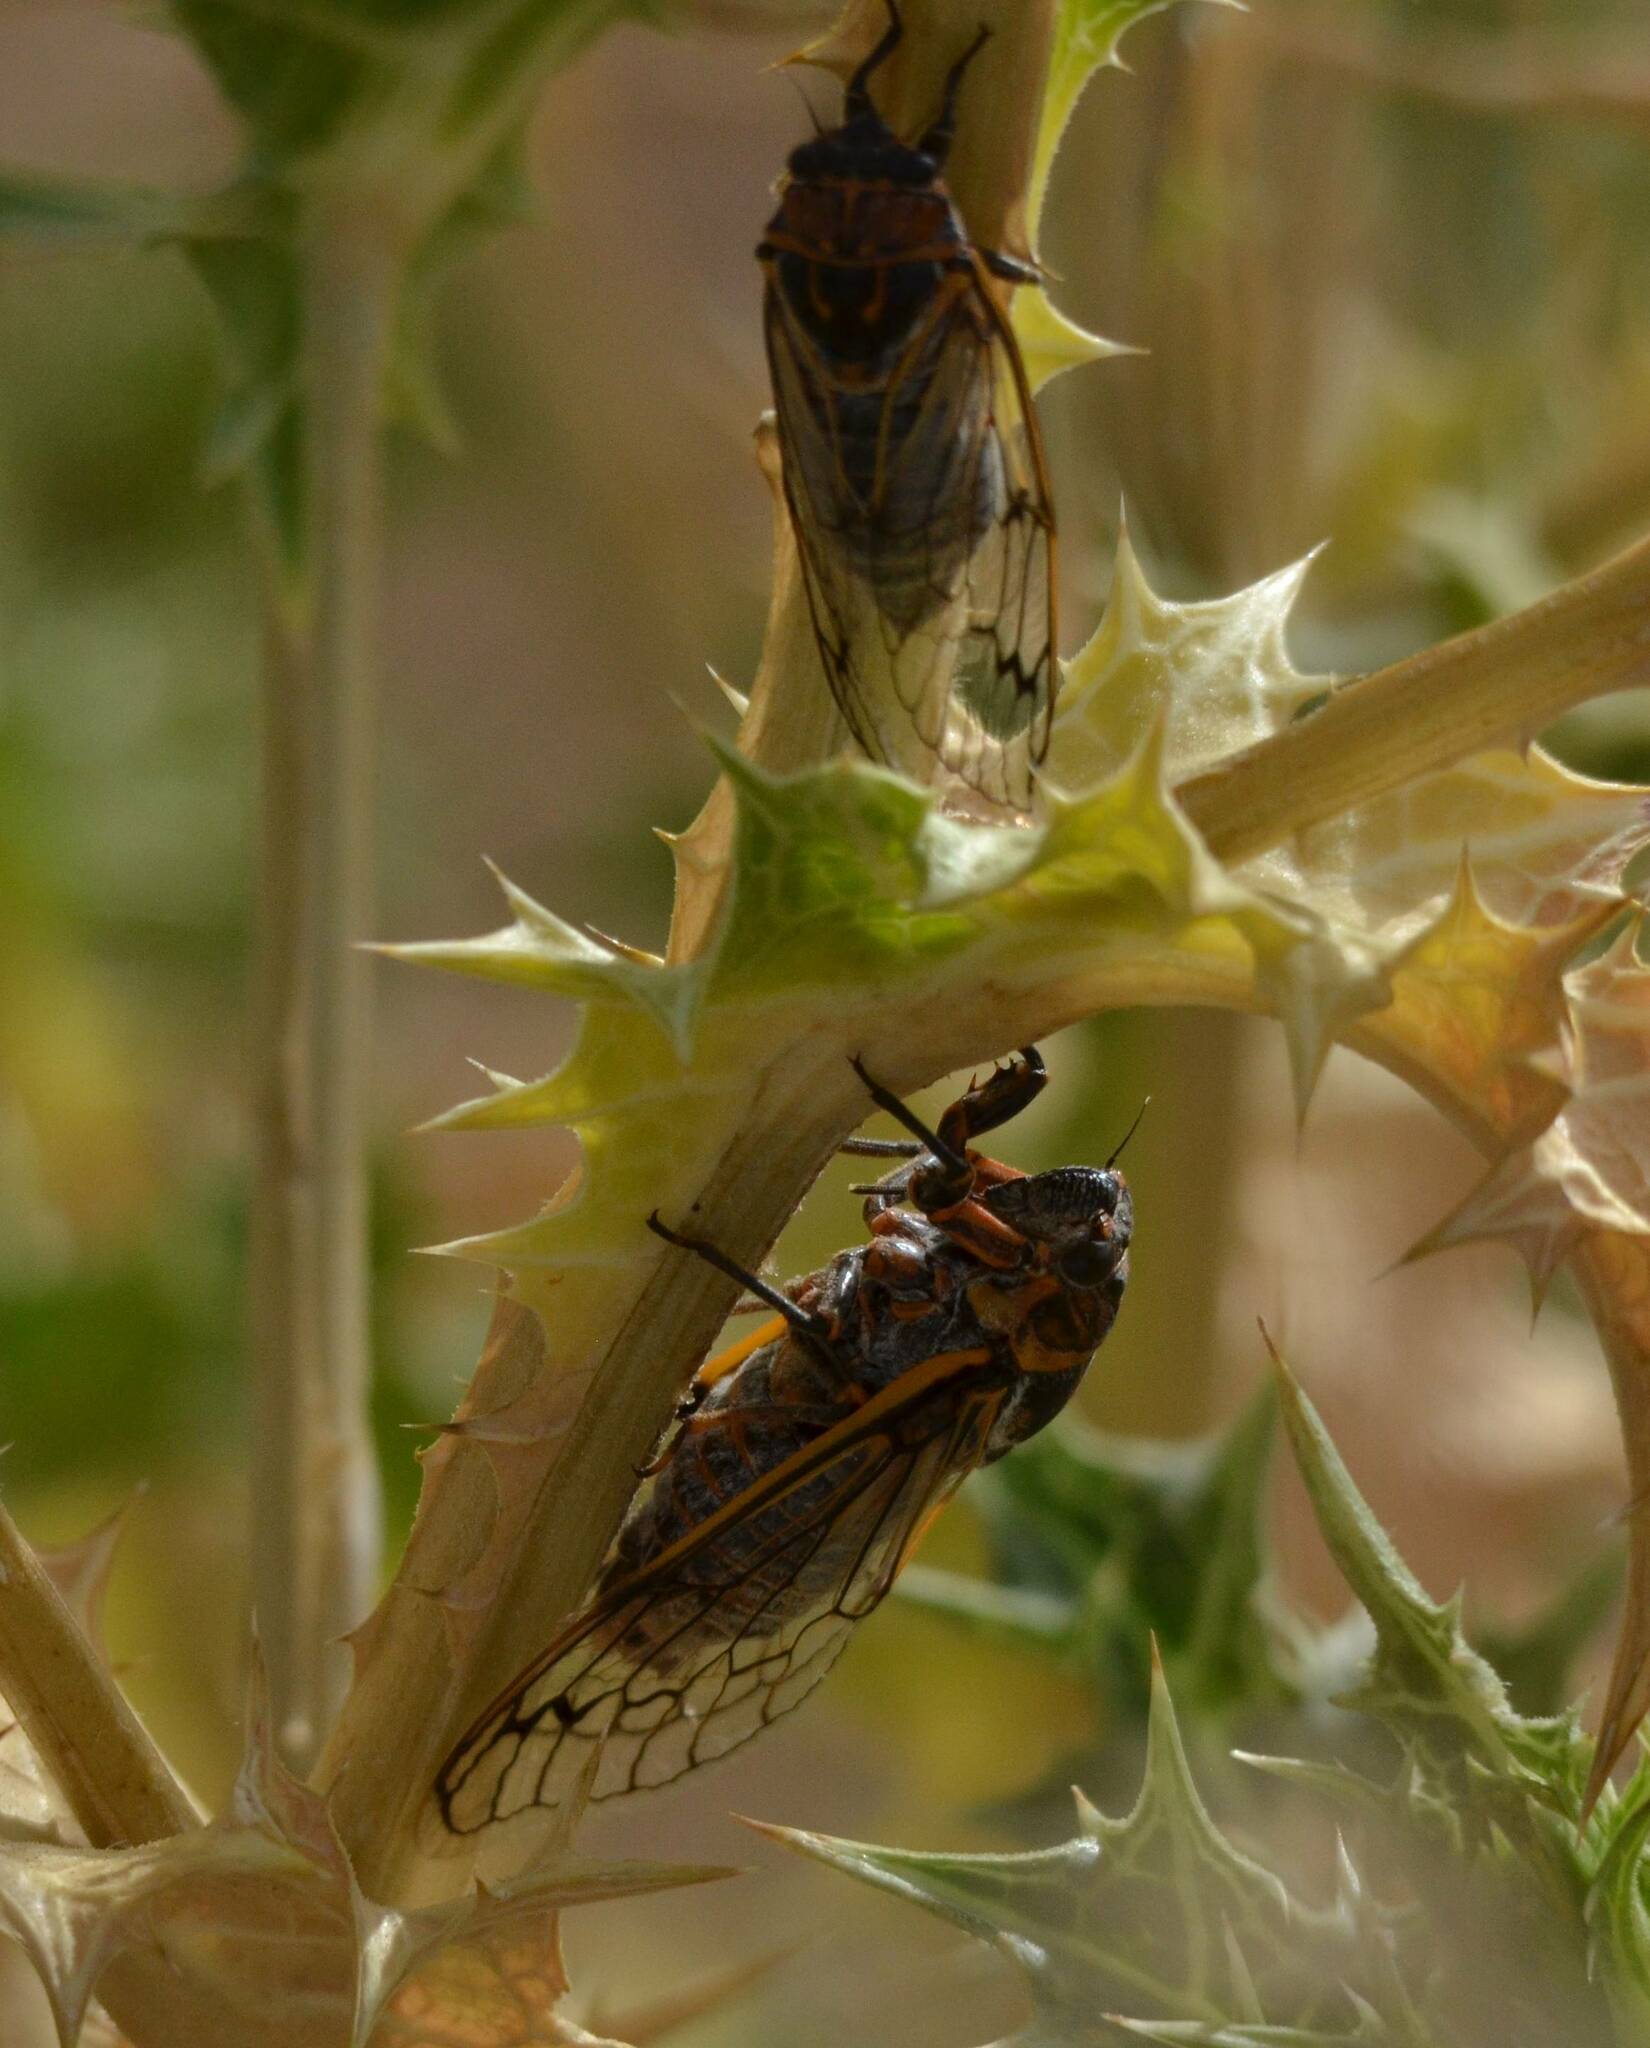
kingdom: Animalia
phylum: Arthropoda
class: Insecta
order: Hemiptera
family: Cicadidae
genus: Psalmocharias
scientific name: Psalmocharias plagifera
